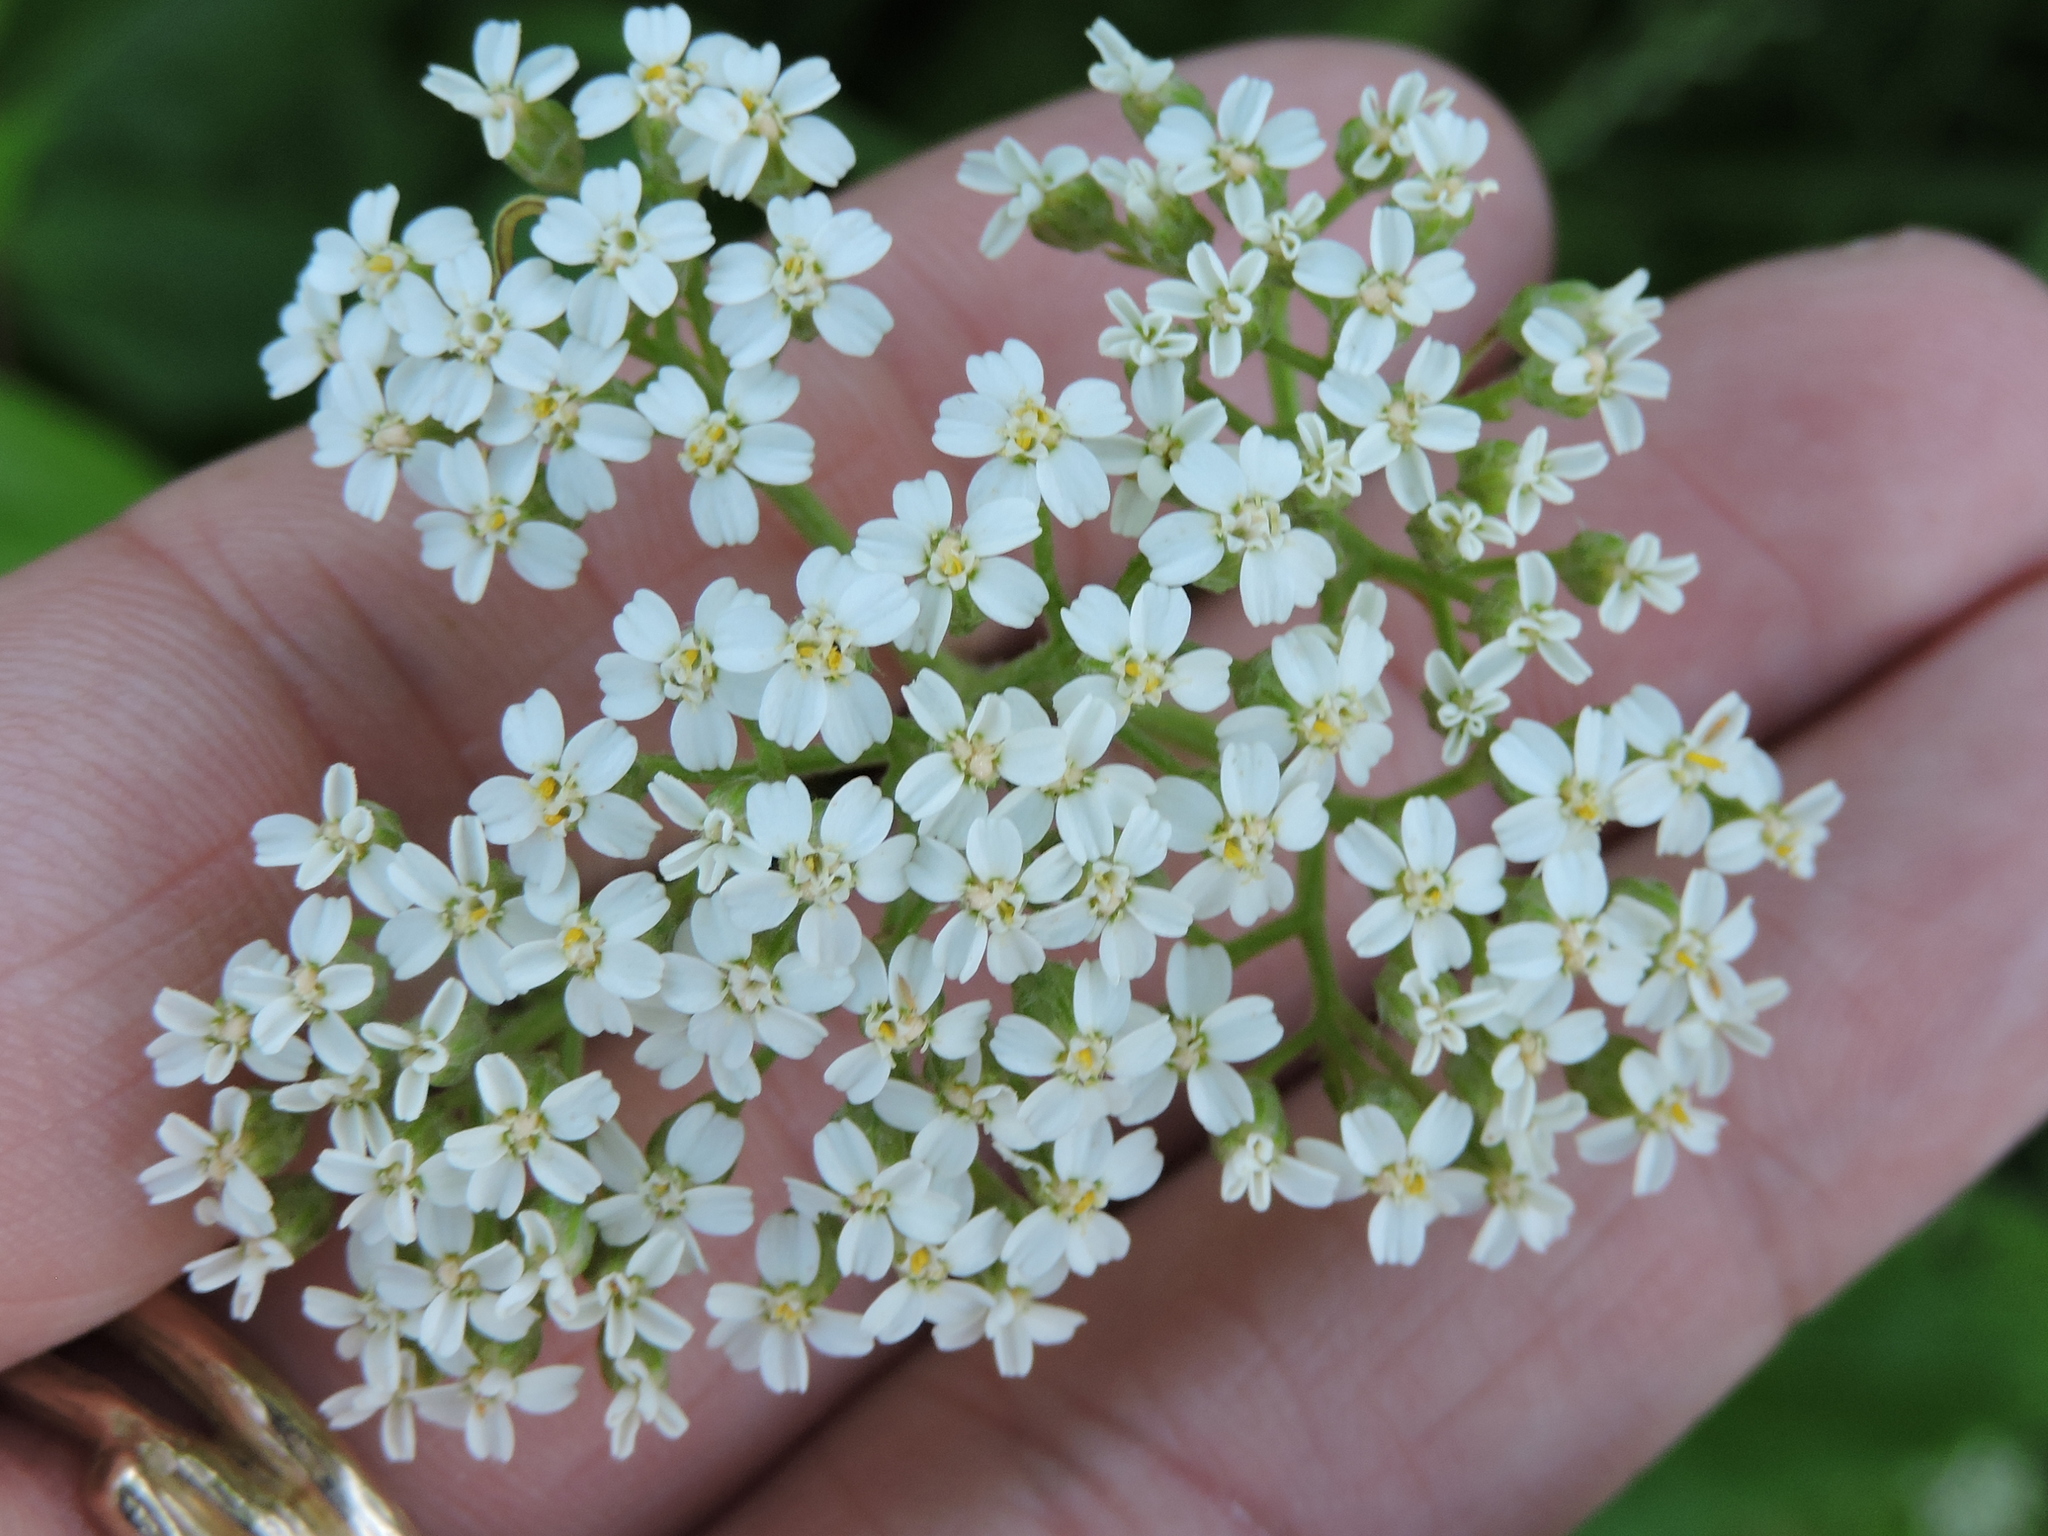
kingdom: Plantae
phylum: Tracheophyta
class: Magnoliopsida
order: Asterales
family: Asteraceae
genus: Achillea
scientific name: Achillea millefolium
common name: Yarrow
